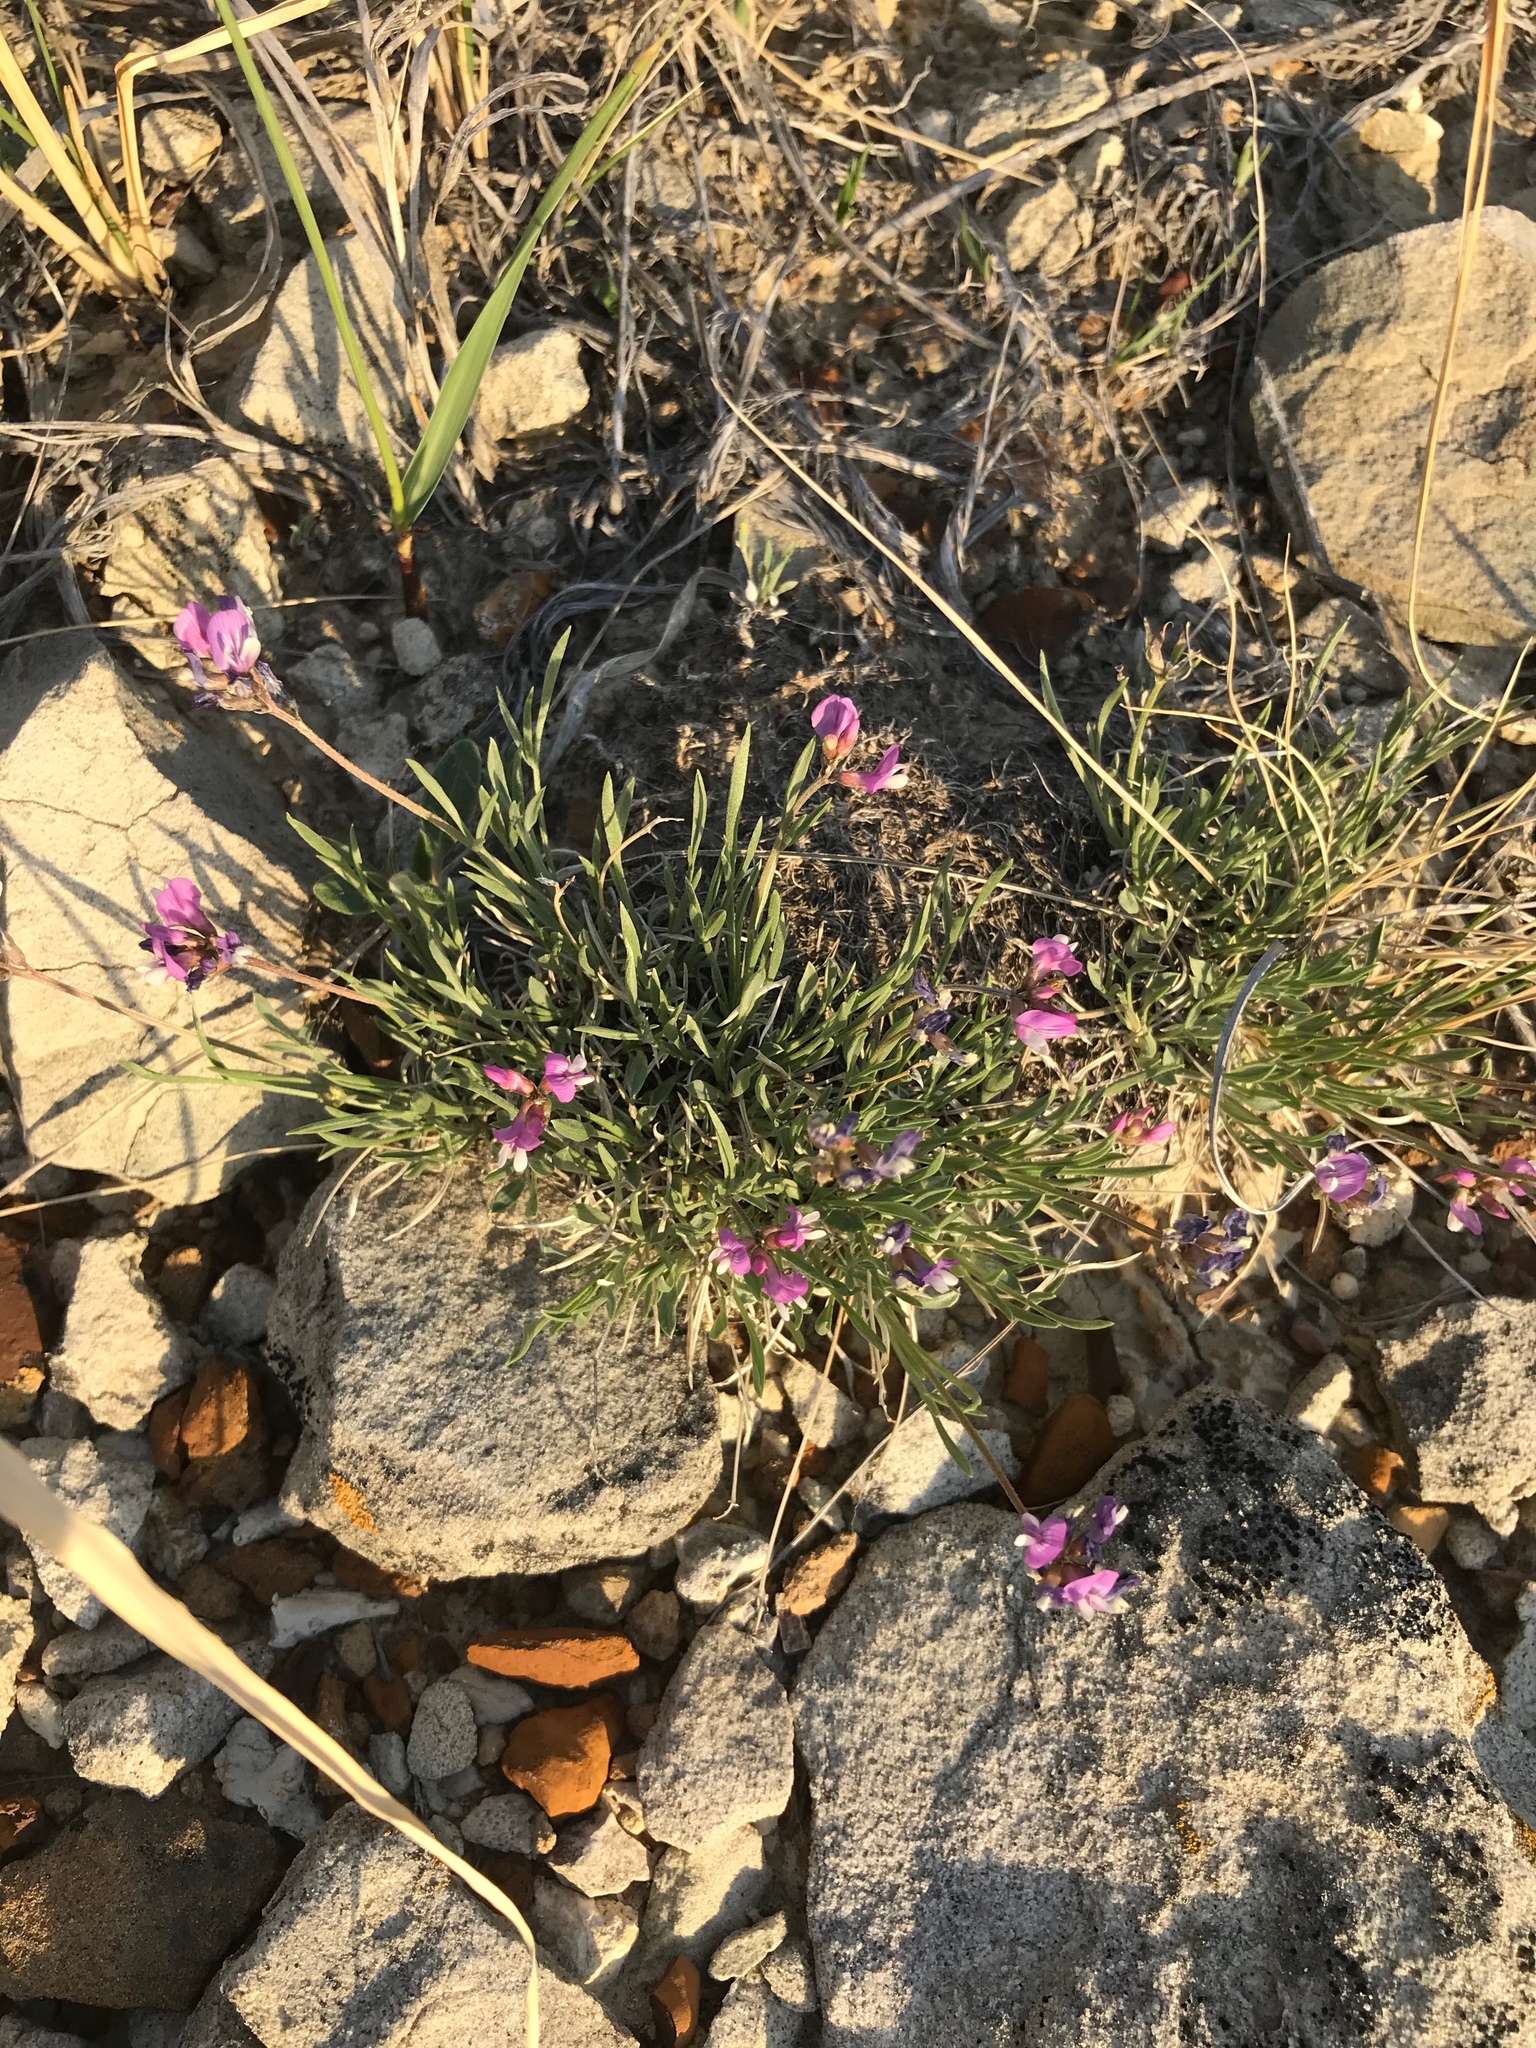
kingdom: Plantae
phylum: Tracheophyta
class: Magnoliopsida
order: Fabales
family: Fabaceae
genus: Astragalus
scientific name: Astragalus spatulatus
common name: Draba milk-vetch
